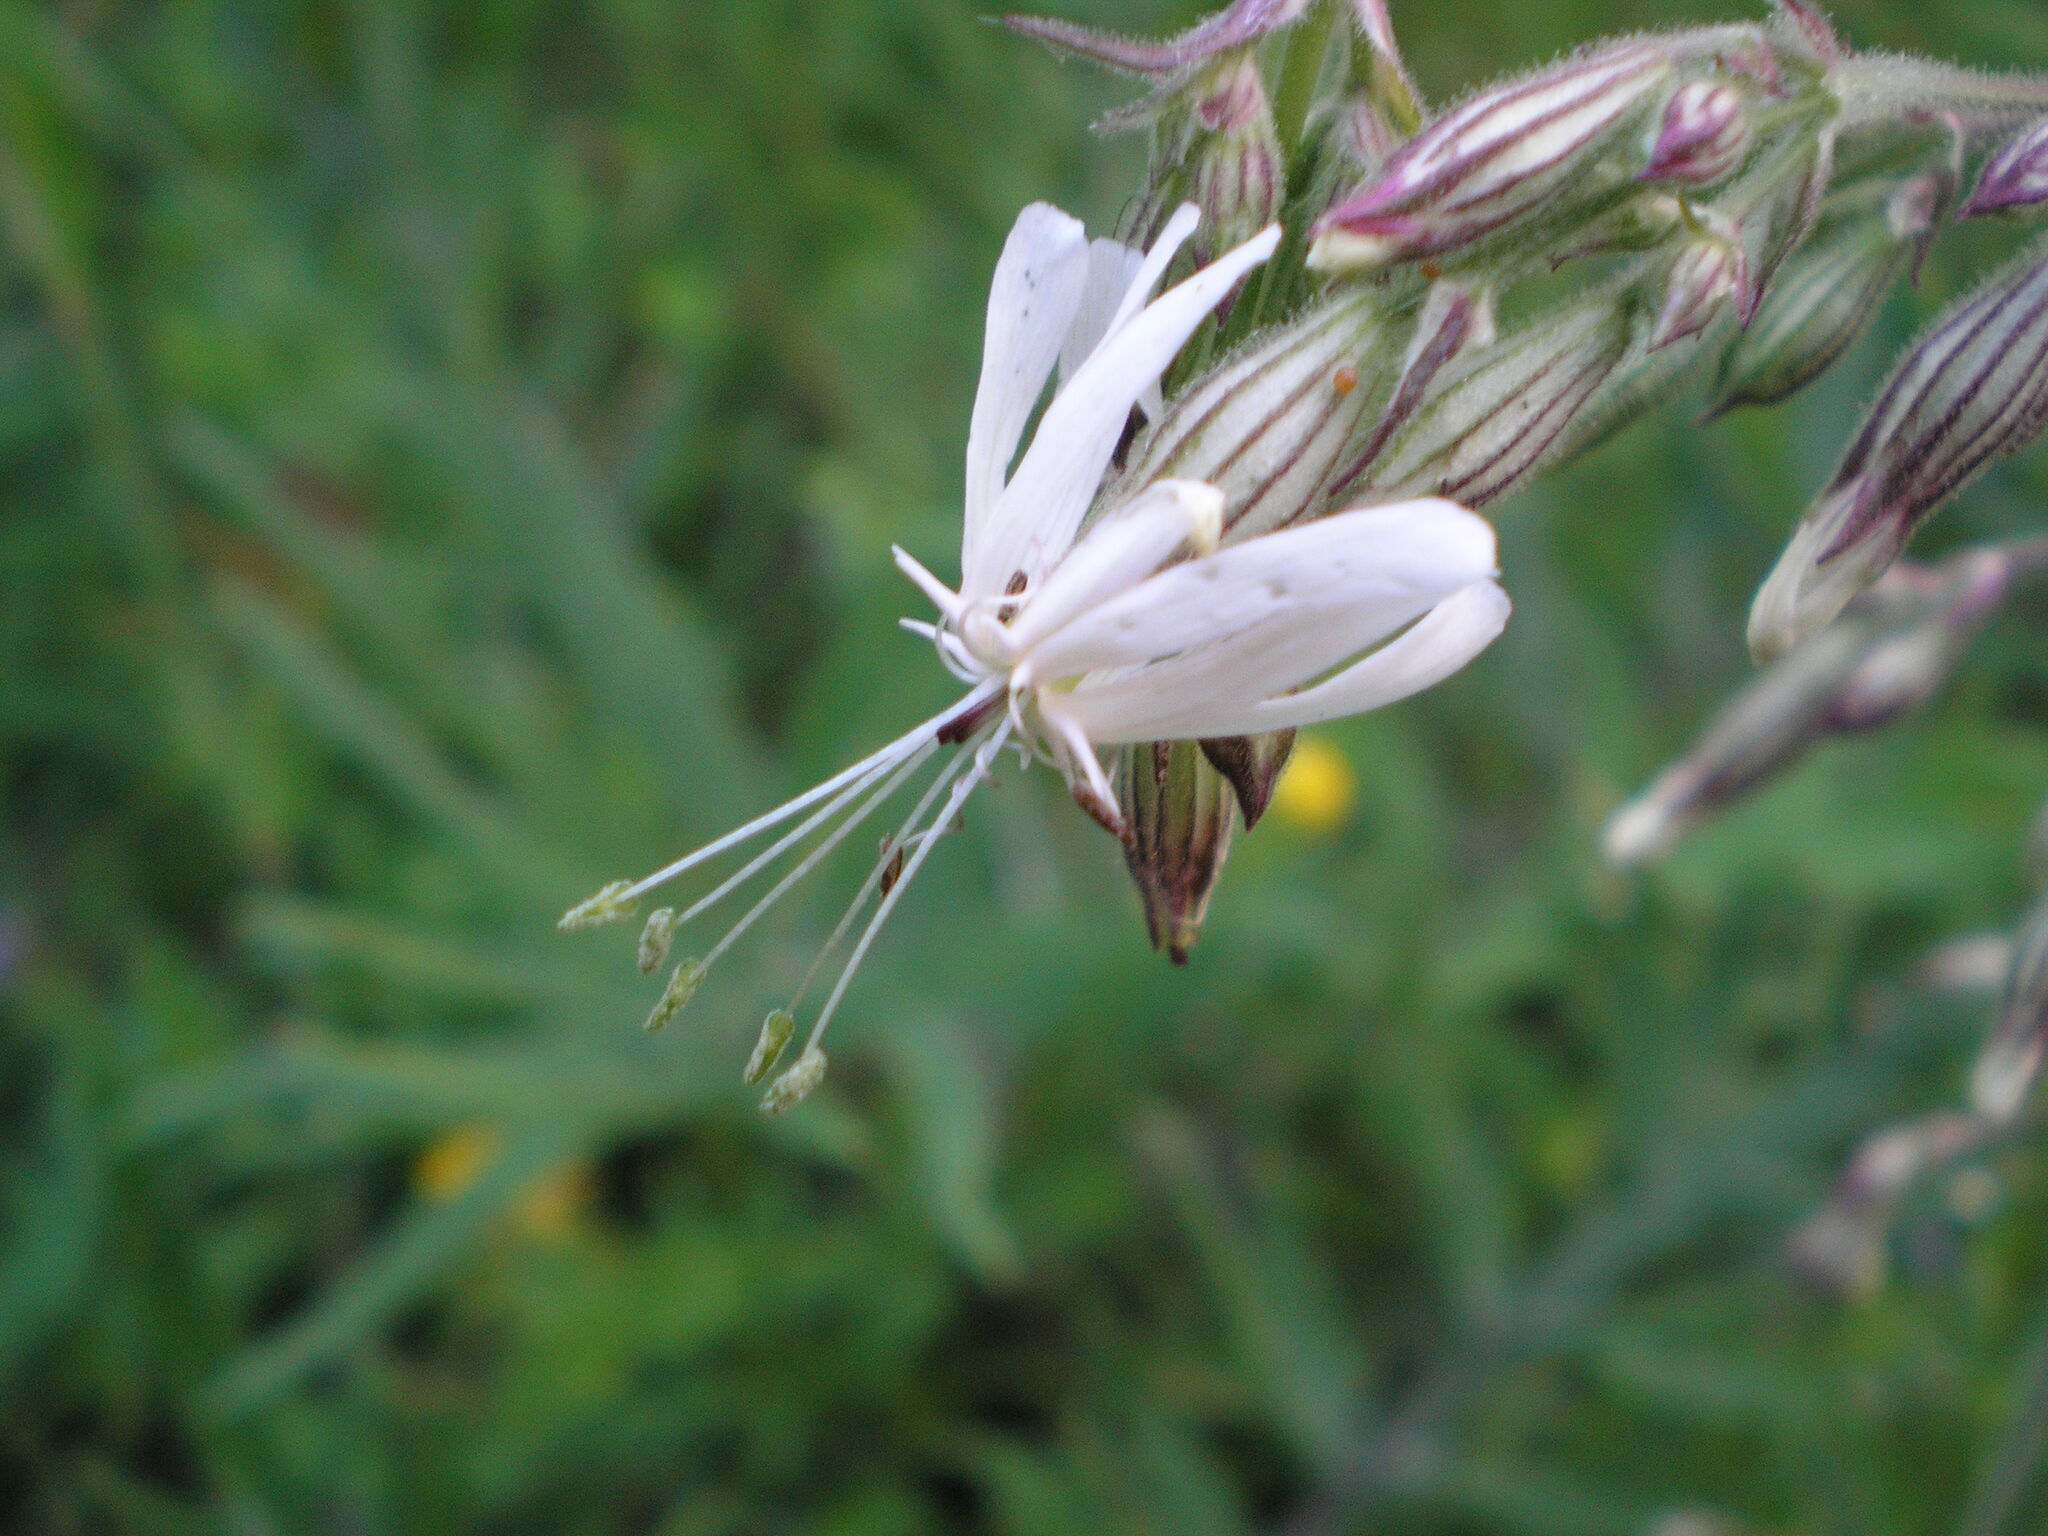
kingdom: Plantae
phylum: Tracheophyta
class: Magnoliopsida
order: Caryophyllales
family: Caryophyllaceae
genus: Silene
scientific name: Silene nutans
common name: Nottingham catchfly
